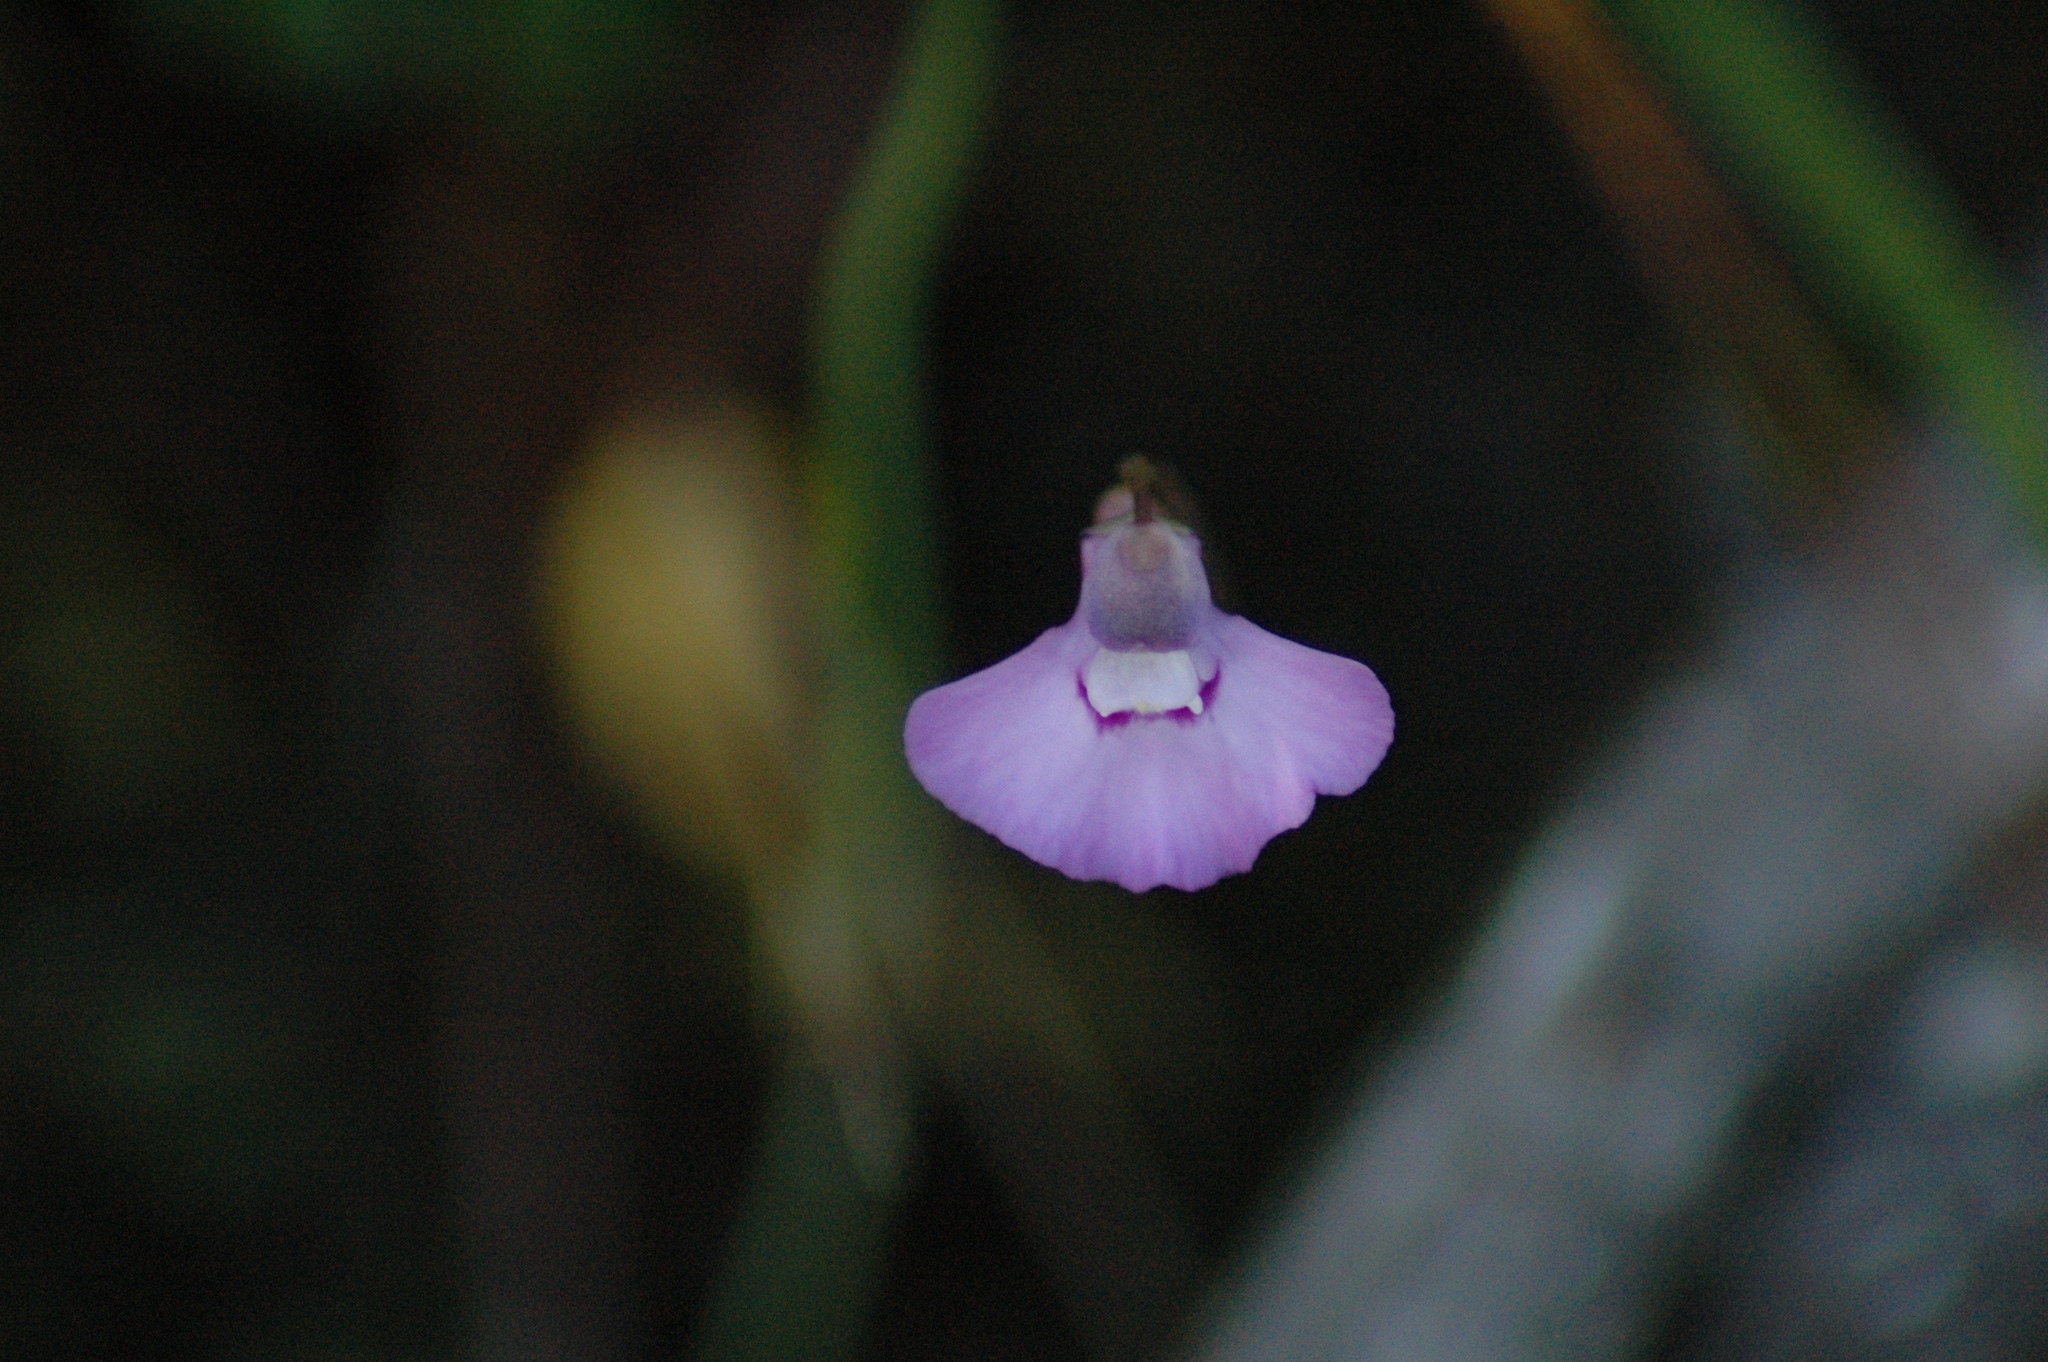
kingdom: Plantae
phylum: Tracheophyta
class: Magnoliopsida
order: Lamiales
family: Lentibulariaceae
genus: Utricularia
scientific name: Utricularia uniflora
